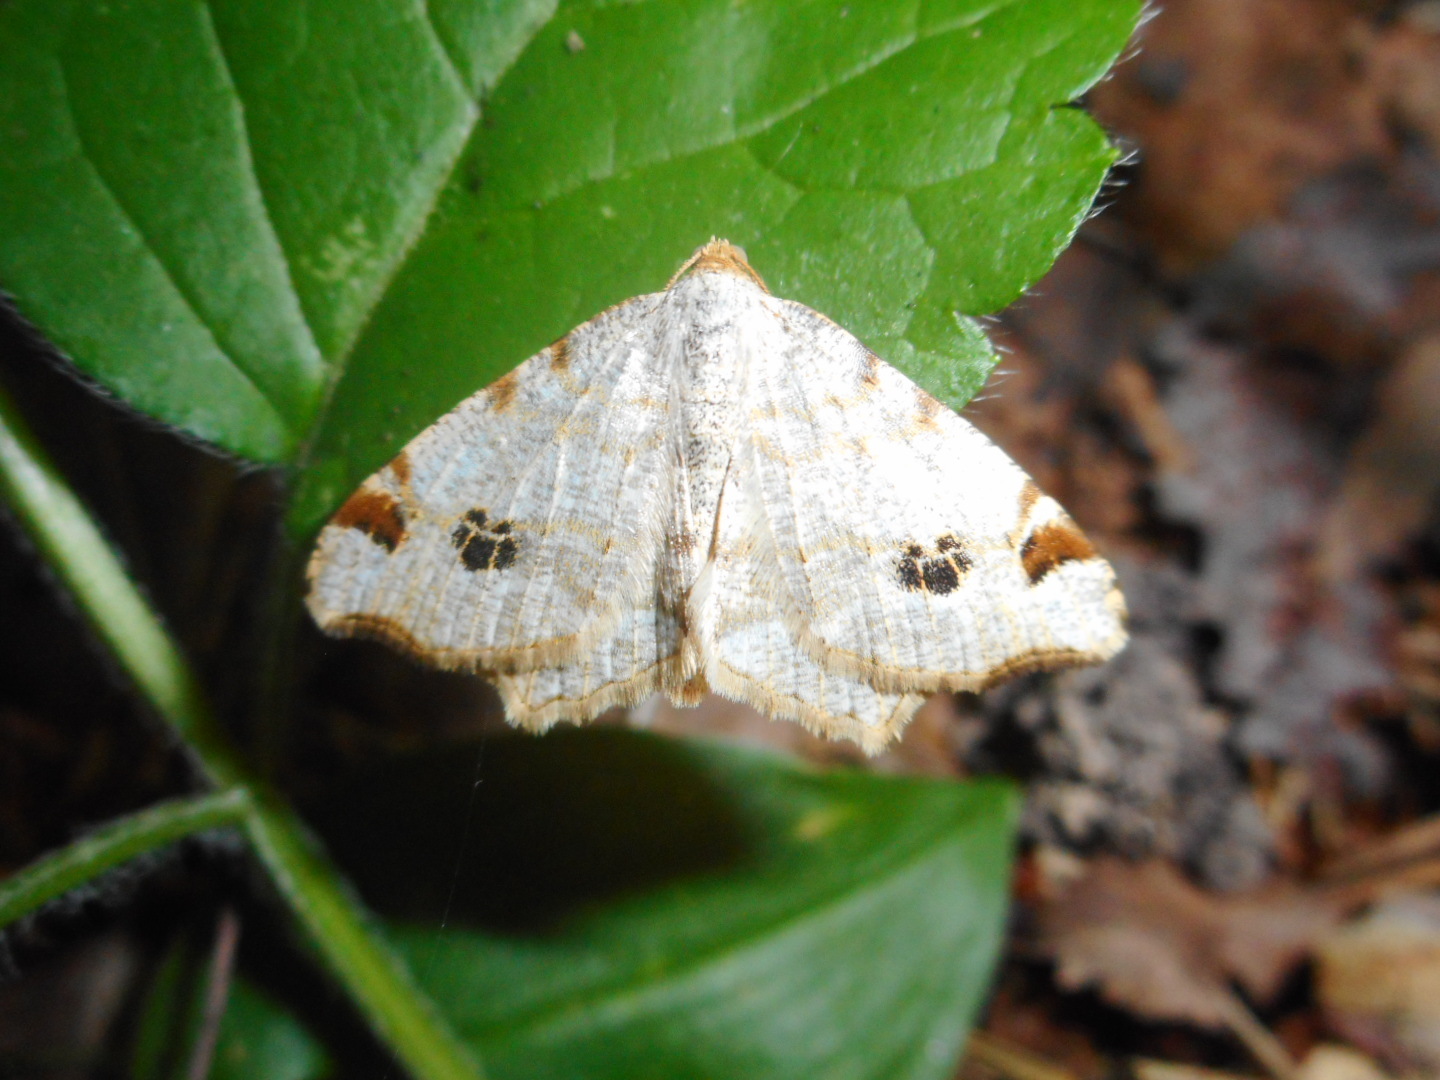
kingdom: Animalia
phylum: Arthropoda
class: Insecta
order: Lepidoptera
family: Geometridae
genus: Macaria
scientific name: Macaria notata
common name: Peacock moth
